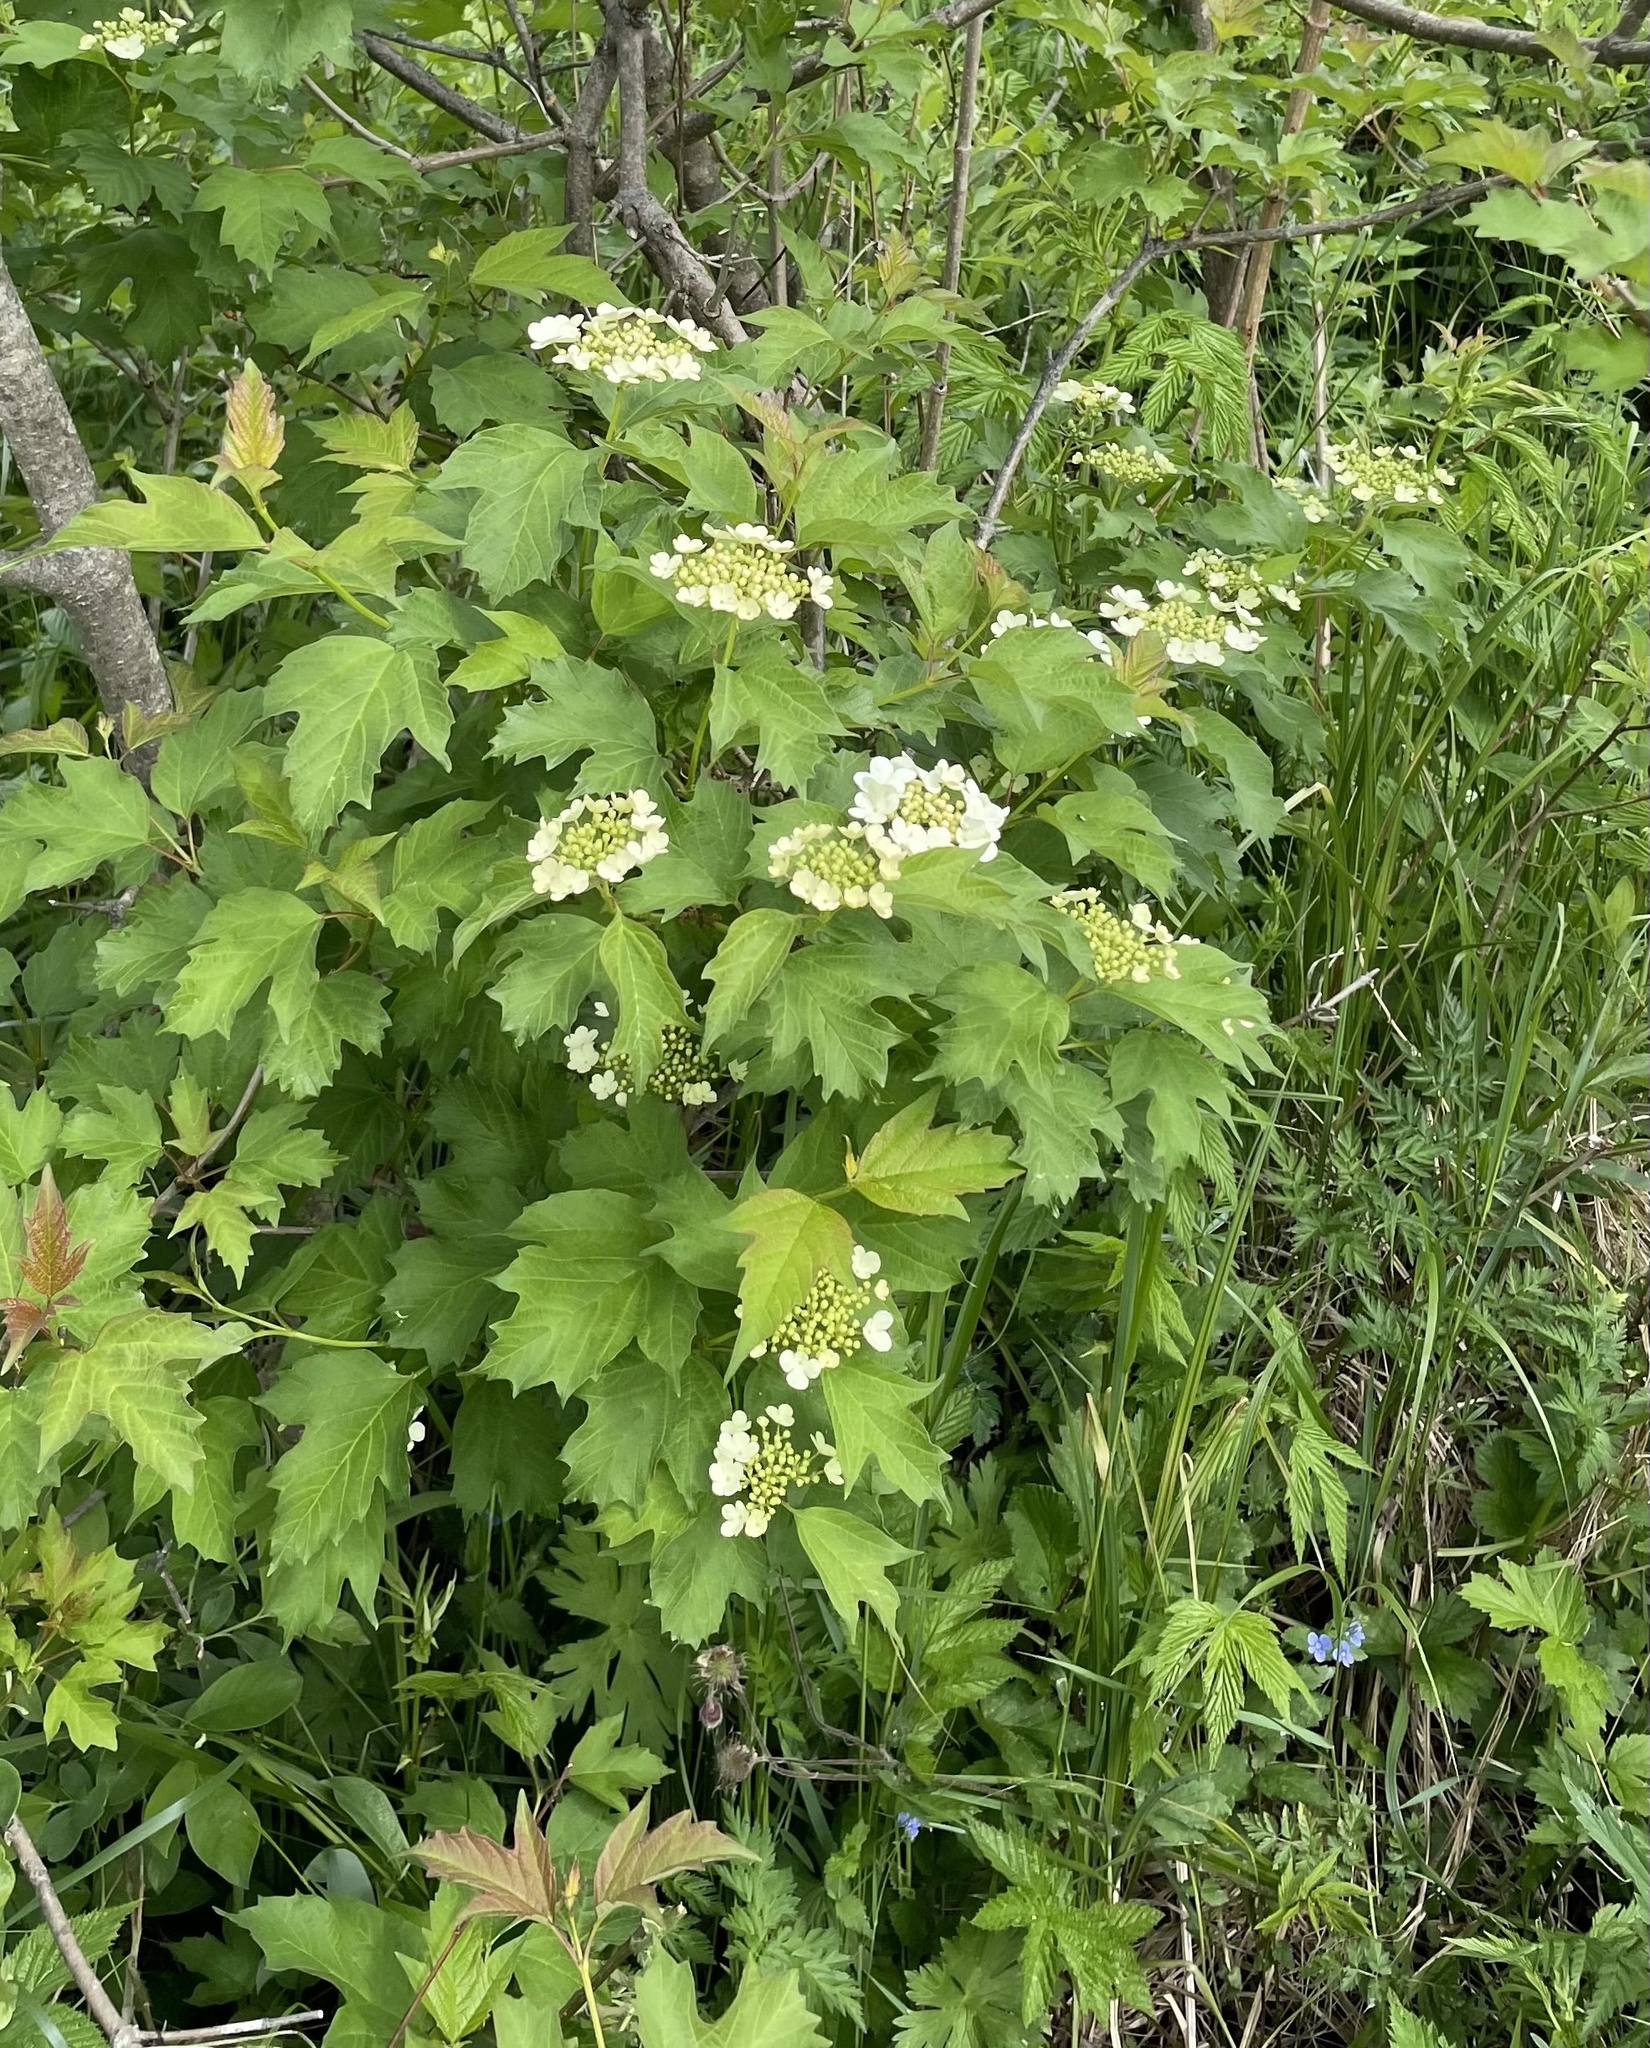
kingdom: Plantae
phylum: Tracheophyta
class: Magnoliopsida
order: Dipsacales
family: Viburnaceae
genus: Viburnum
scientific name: Viburnum opulus
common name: Guelder-rose
